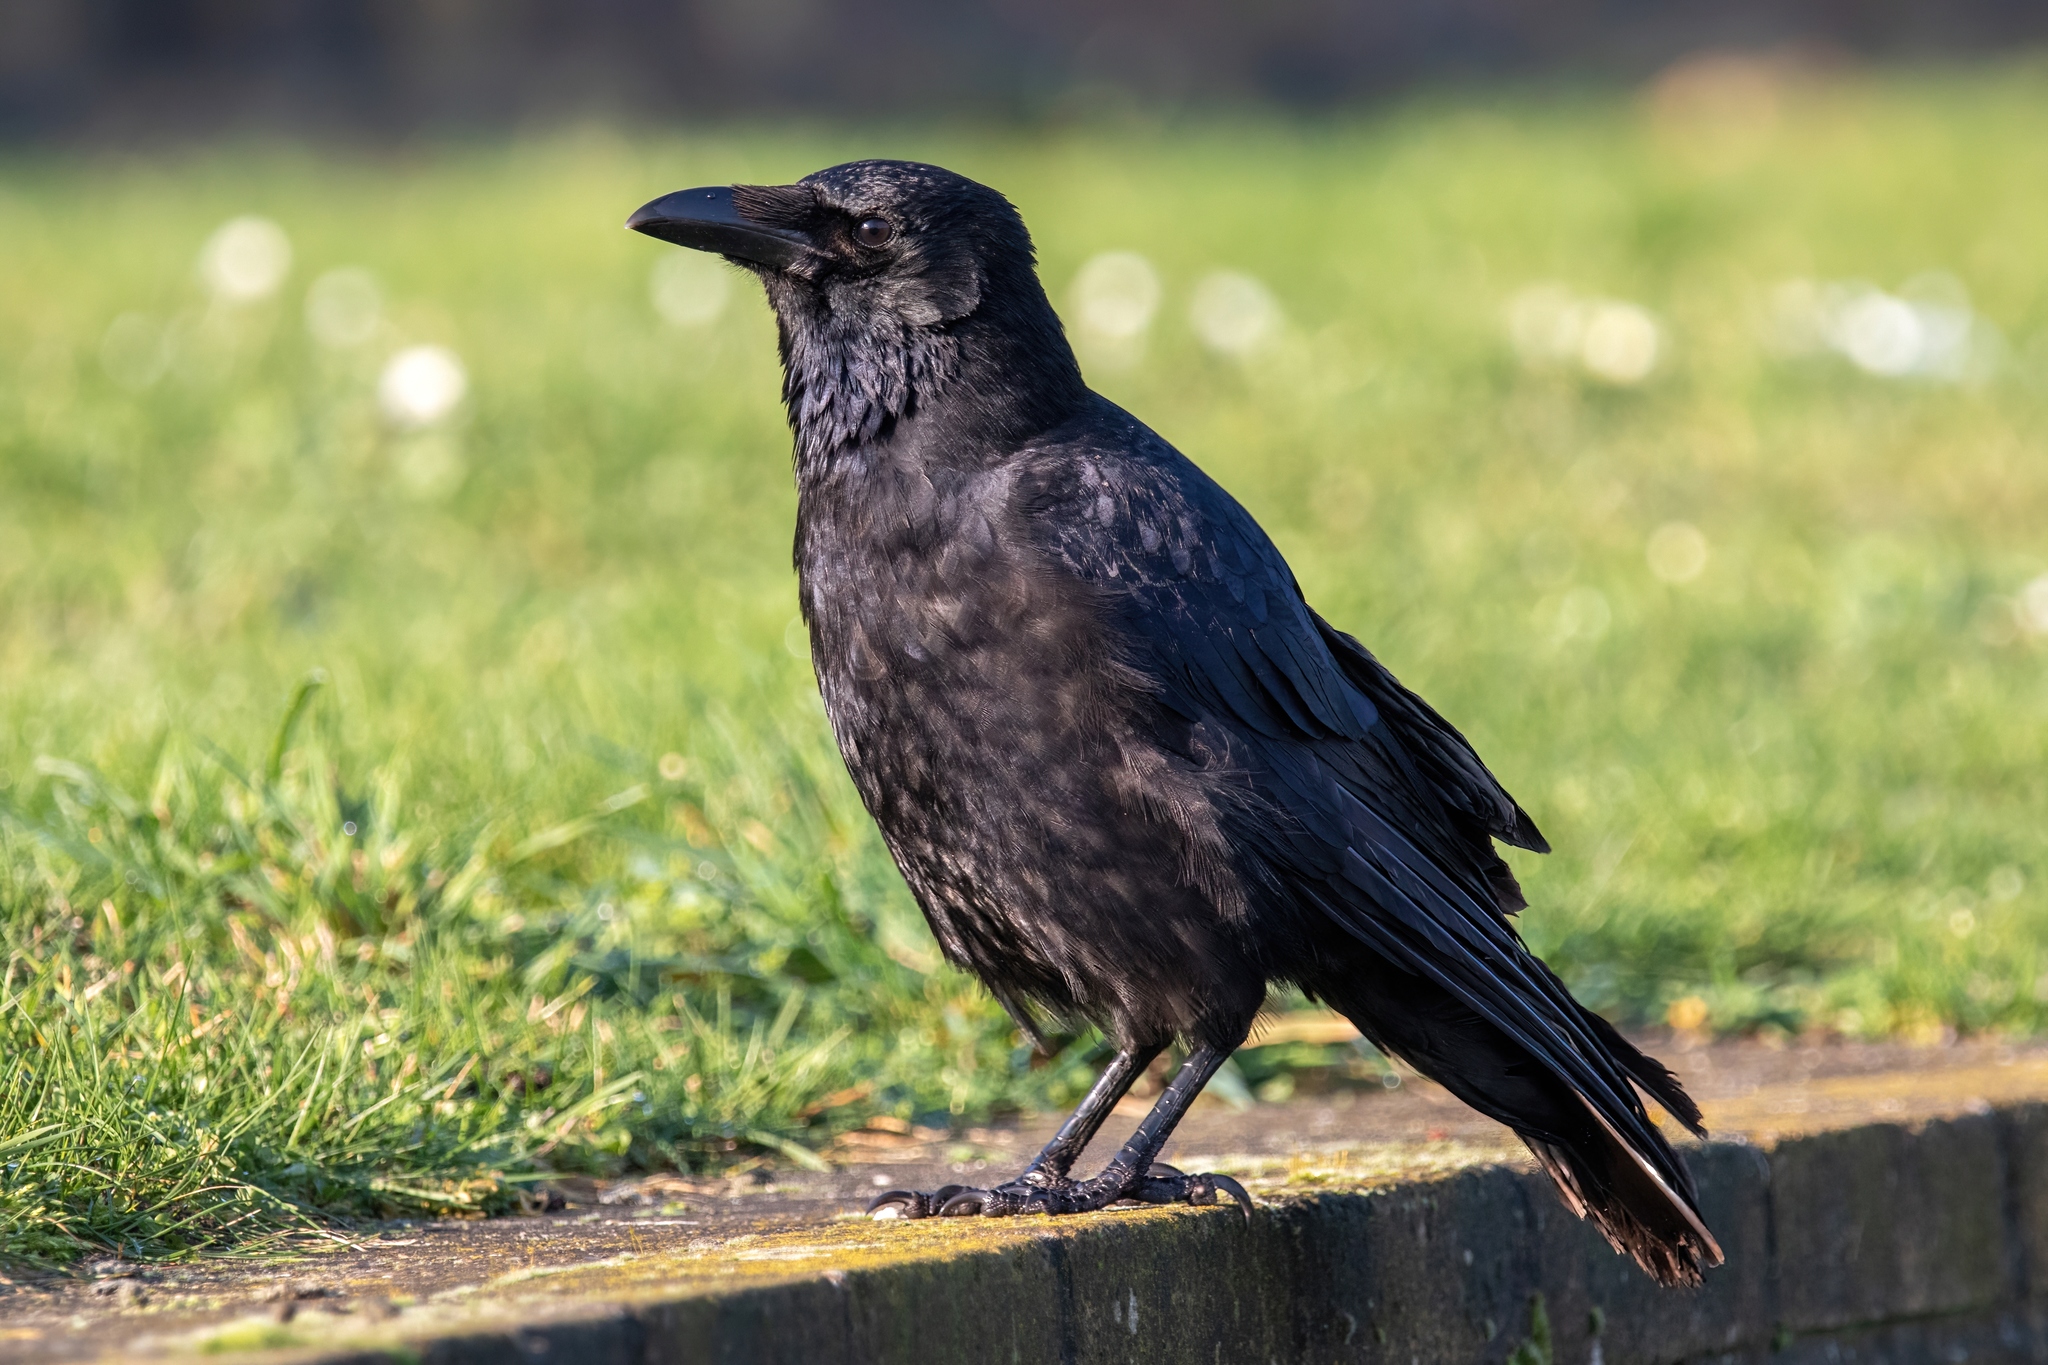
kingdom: Animalia
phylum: Chordata
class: Aves
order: Passeriformes
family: Corvidae
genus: Corvus
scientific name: Corvus corone
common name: Carrion crow
